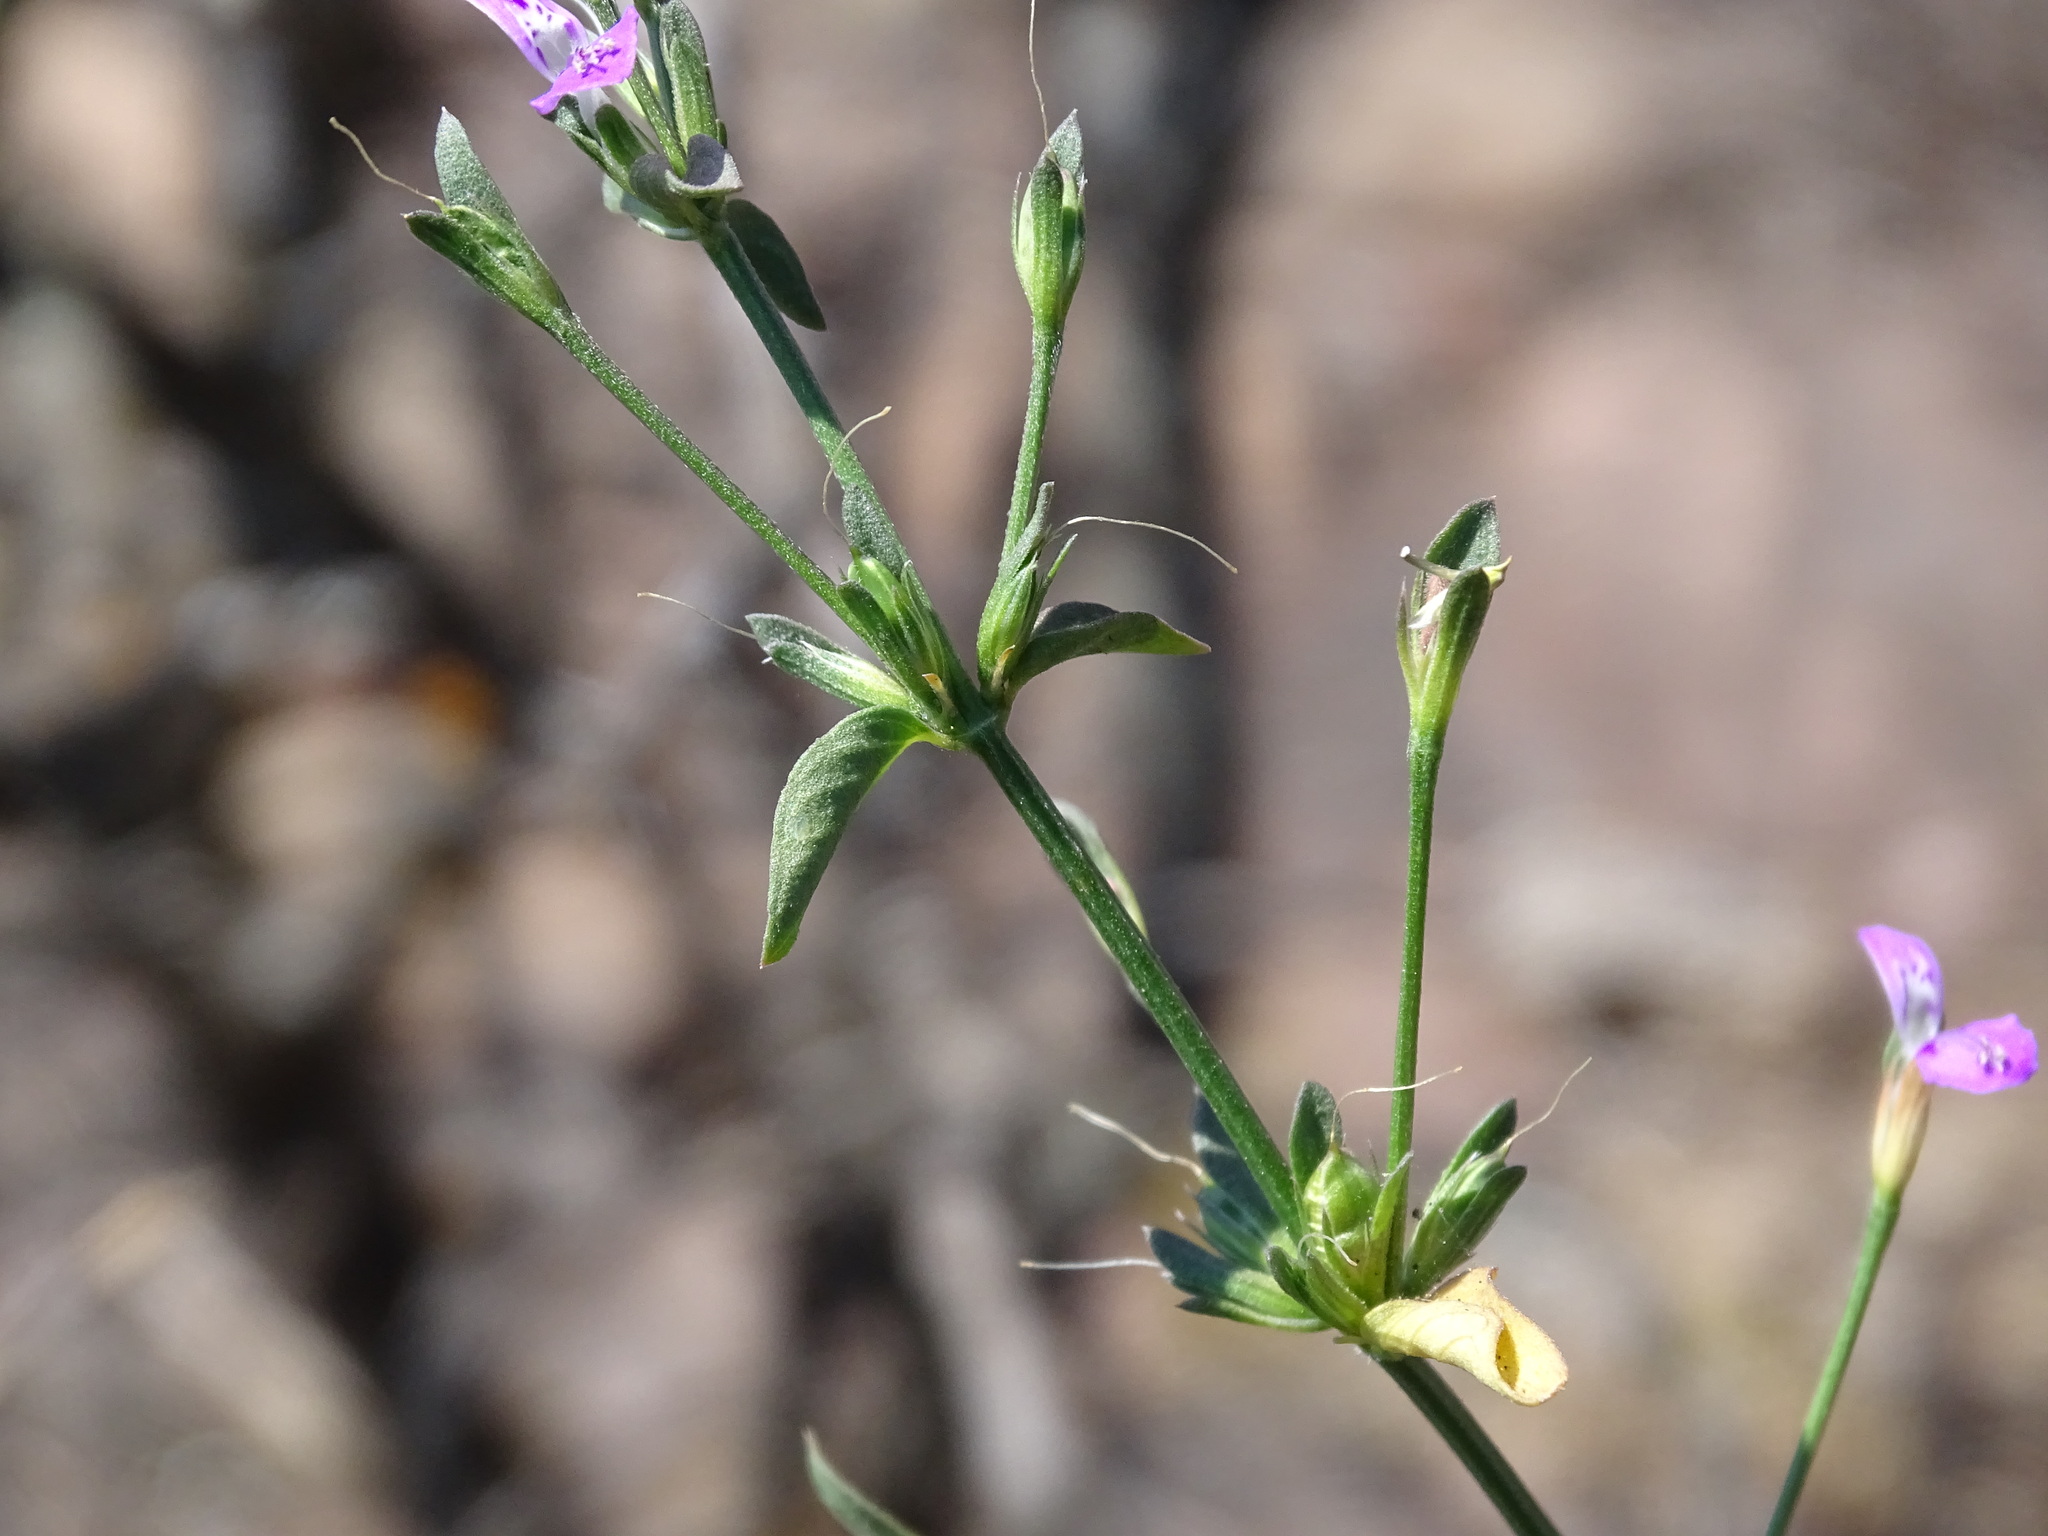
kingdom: Plantae
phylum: Tracheophyta
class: Magnoliopsida
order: Lamiales
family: Acanthaceae
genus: Dicliptera
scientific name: Dicliptera peduncularis
